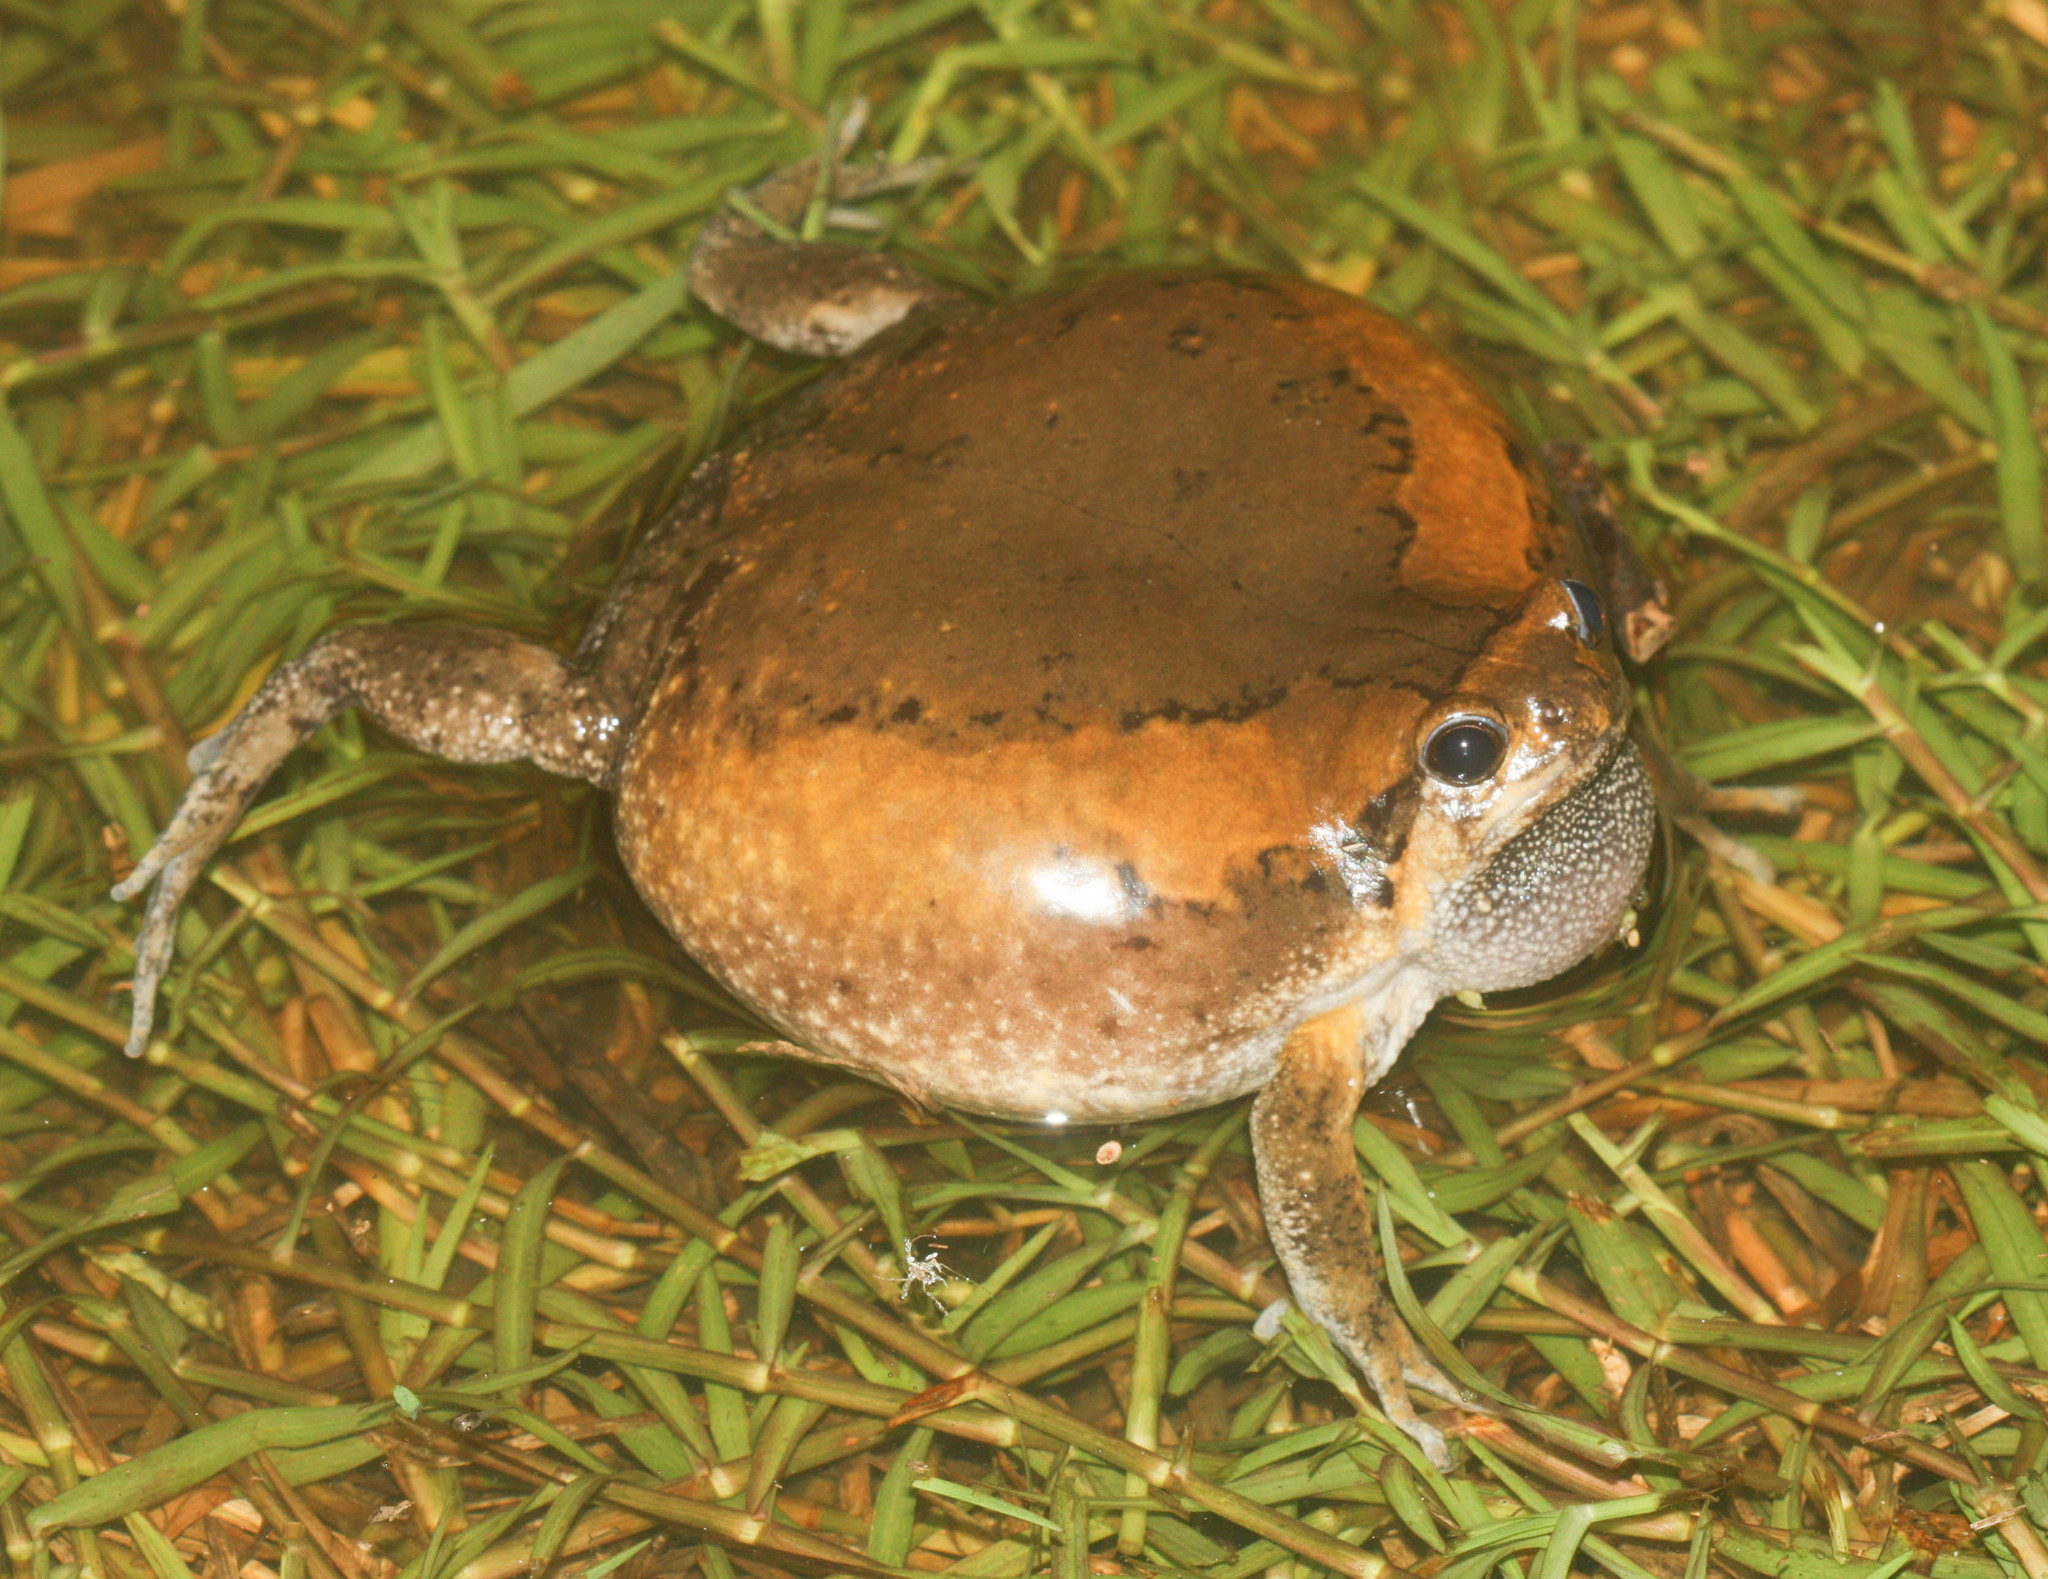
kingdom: Animalia
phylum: Chordata
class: Amphibia
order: Anura
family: Microhylidae
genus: Kaloula
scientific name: Kaloula pulchra
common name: Common,banded bullfrog
